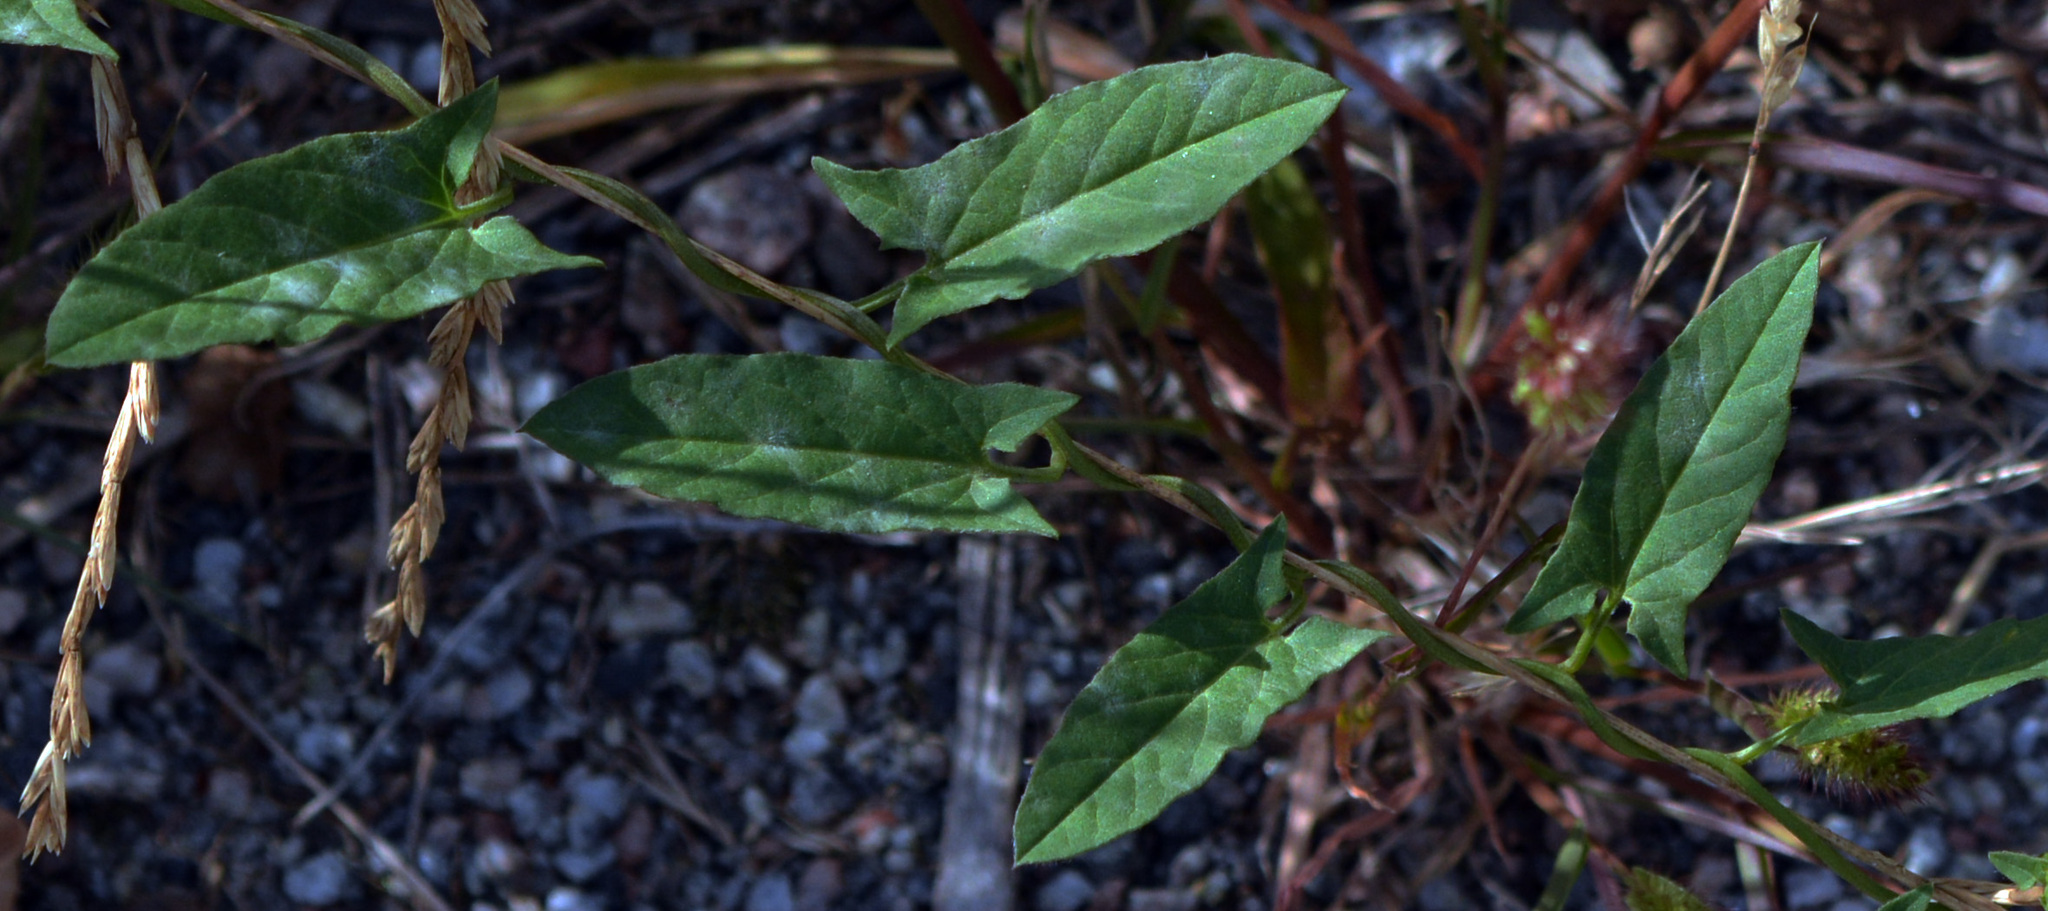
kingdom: Plantae
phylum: Tracheophyta
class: Magnoliopsida
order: Solanales
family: Convolvulaceae
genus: Convolvulus
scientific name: Convolvulus arvensis
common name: Field bindweed
